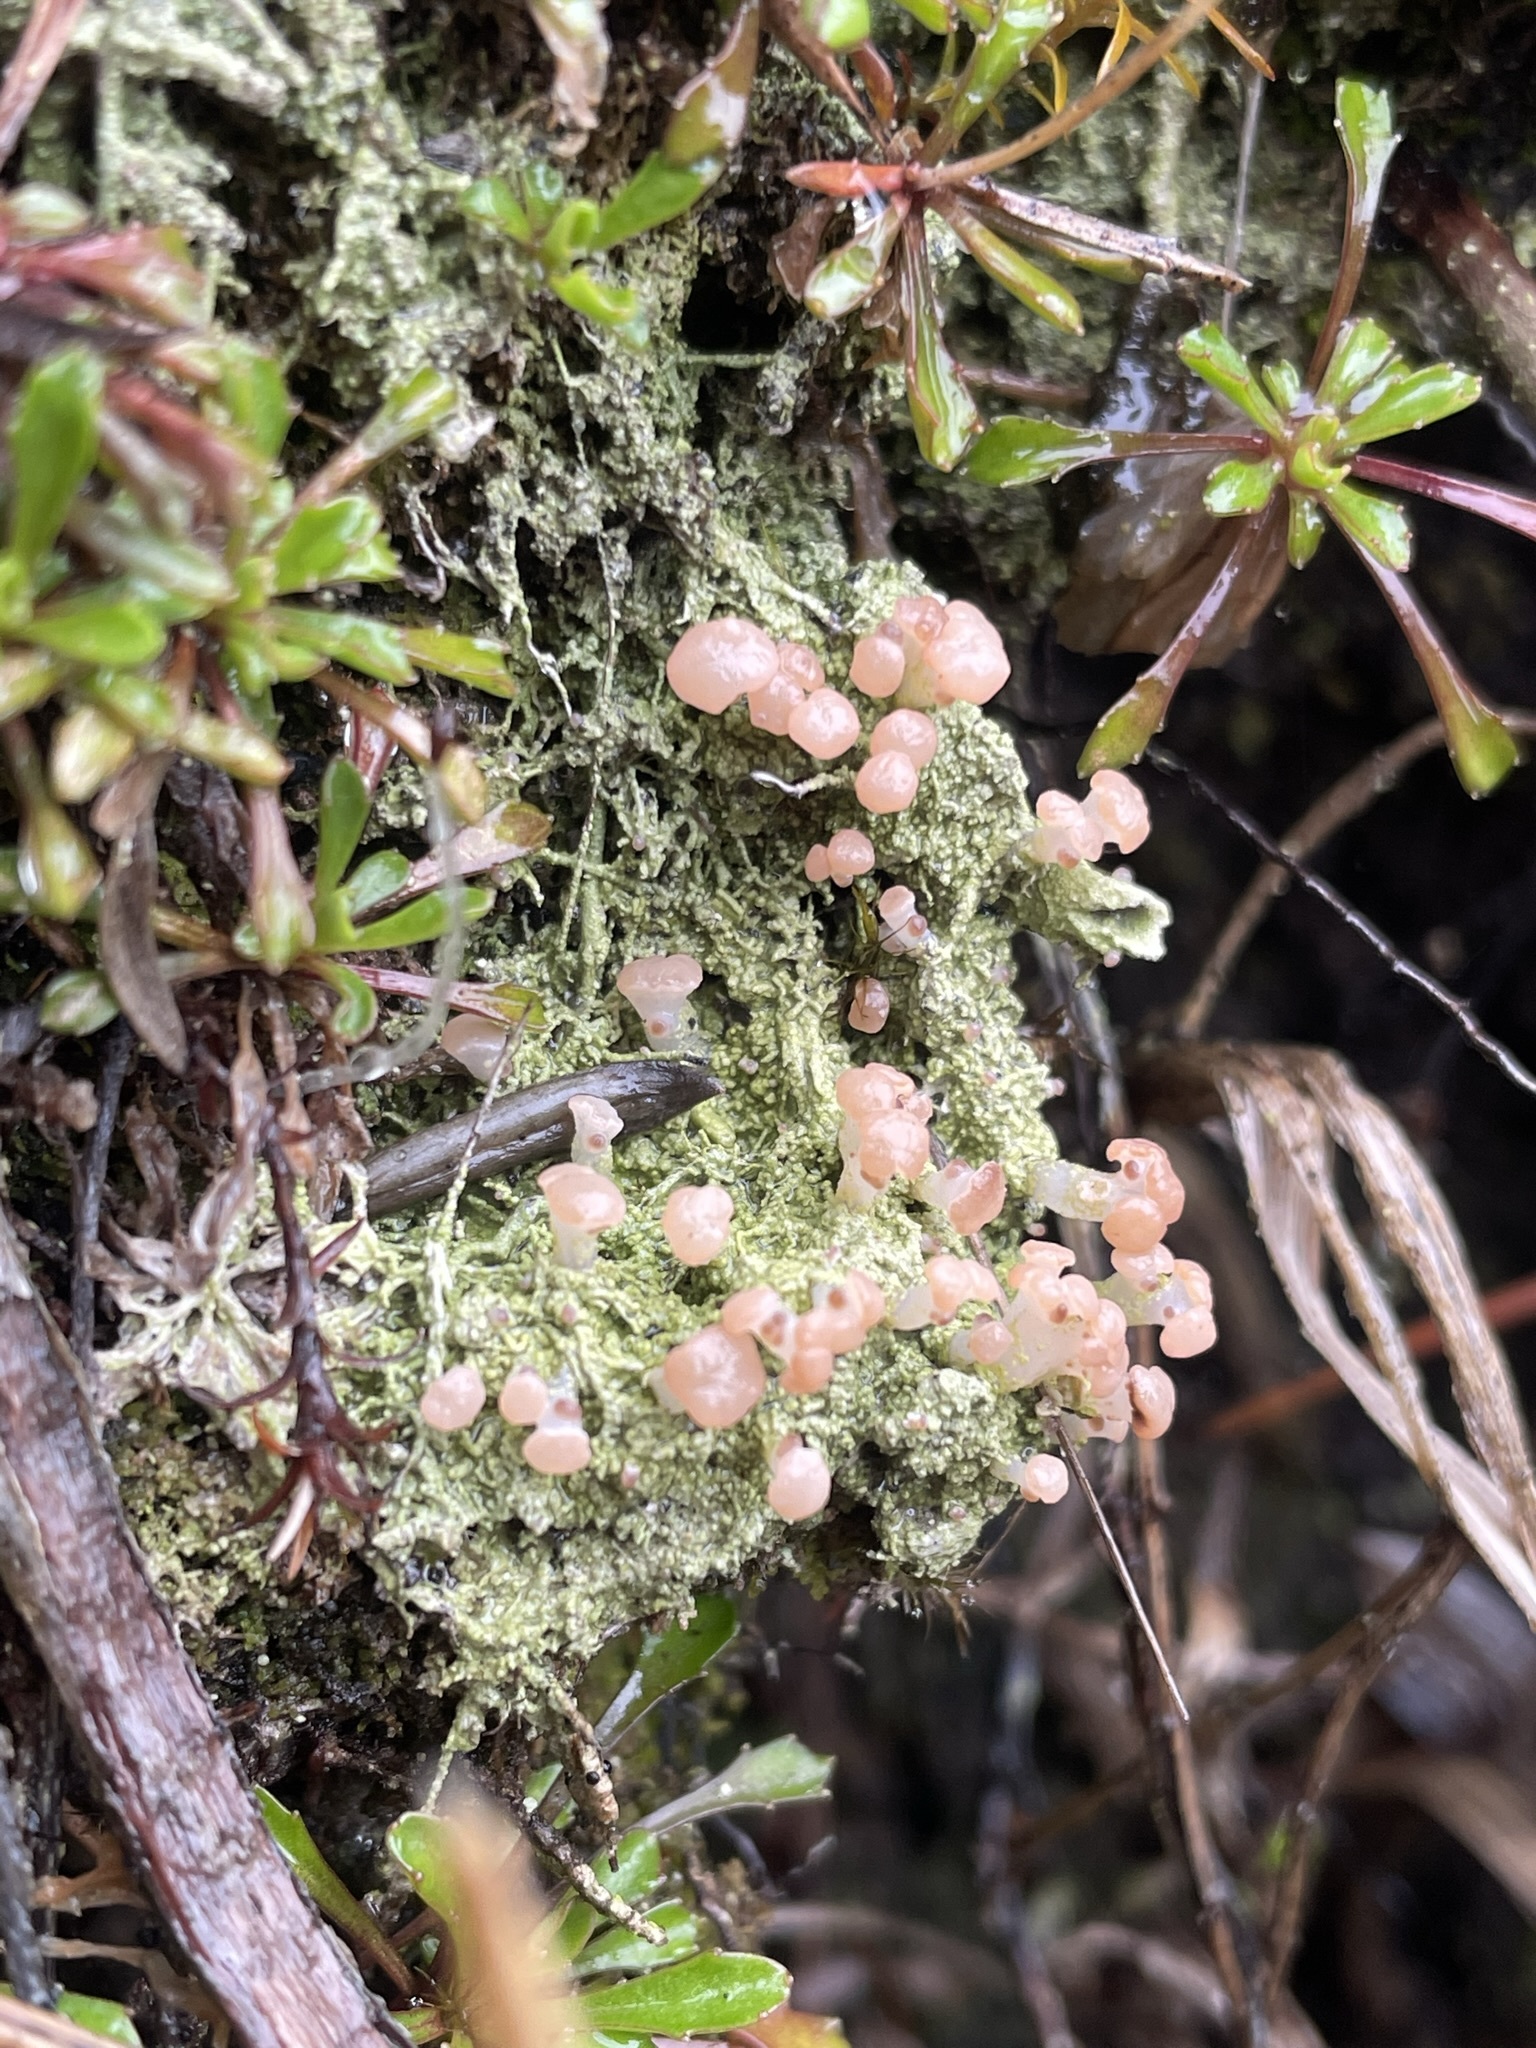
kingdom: Fungi
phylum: Ascomycota
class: Lecanoromycetes
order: Baeomycetales
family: Baeomycetaceae
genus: Baeomyces
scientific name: Baeomyces heteromorphus
